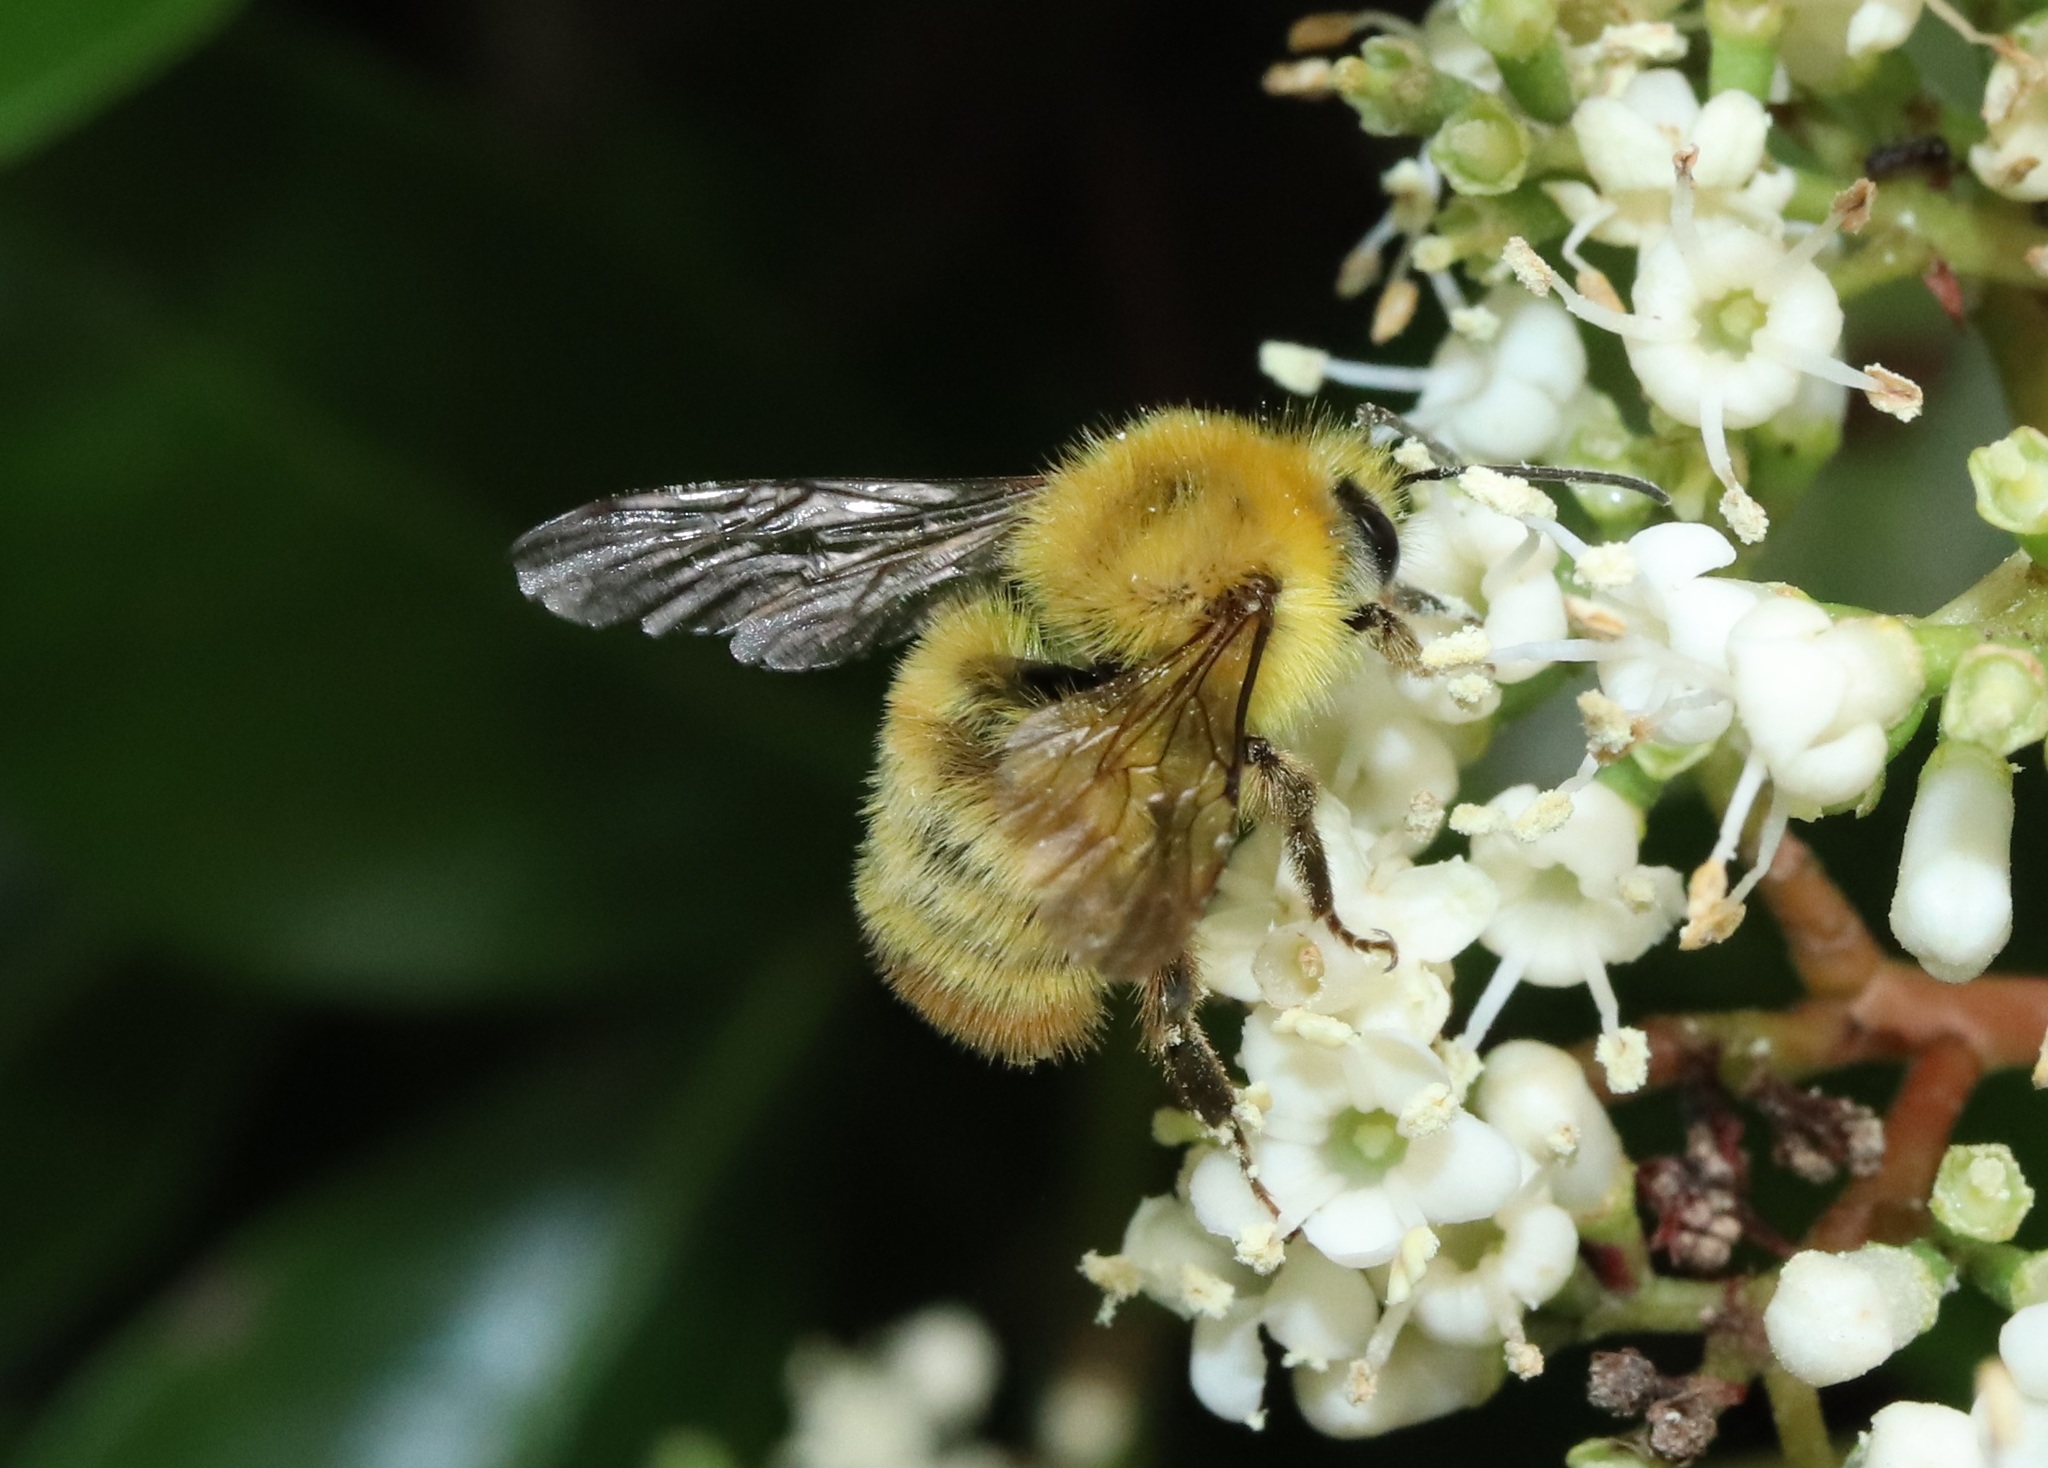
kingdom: Animalia
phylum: Arthropoda
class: Insecta
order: Hymenoptera
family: Apidae
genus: Bombus
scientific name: Bombus ardens
